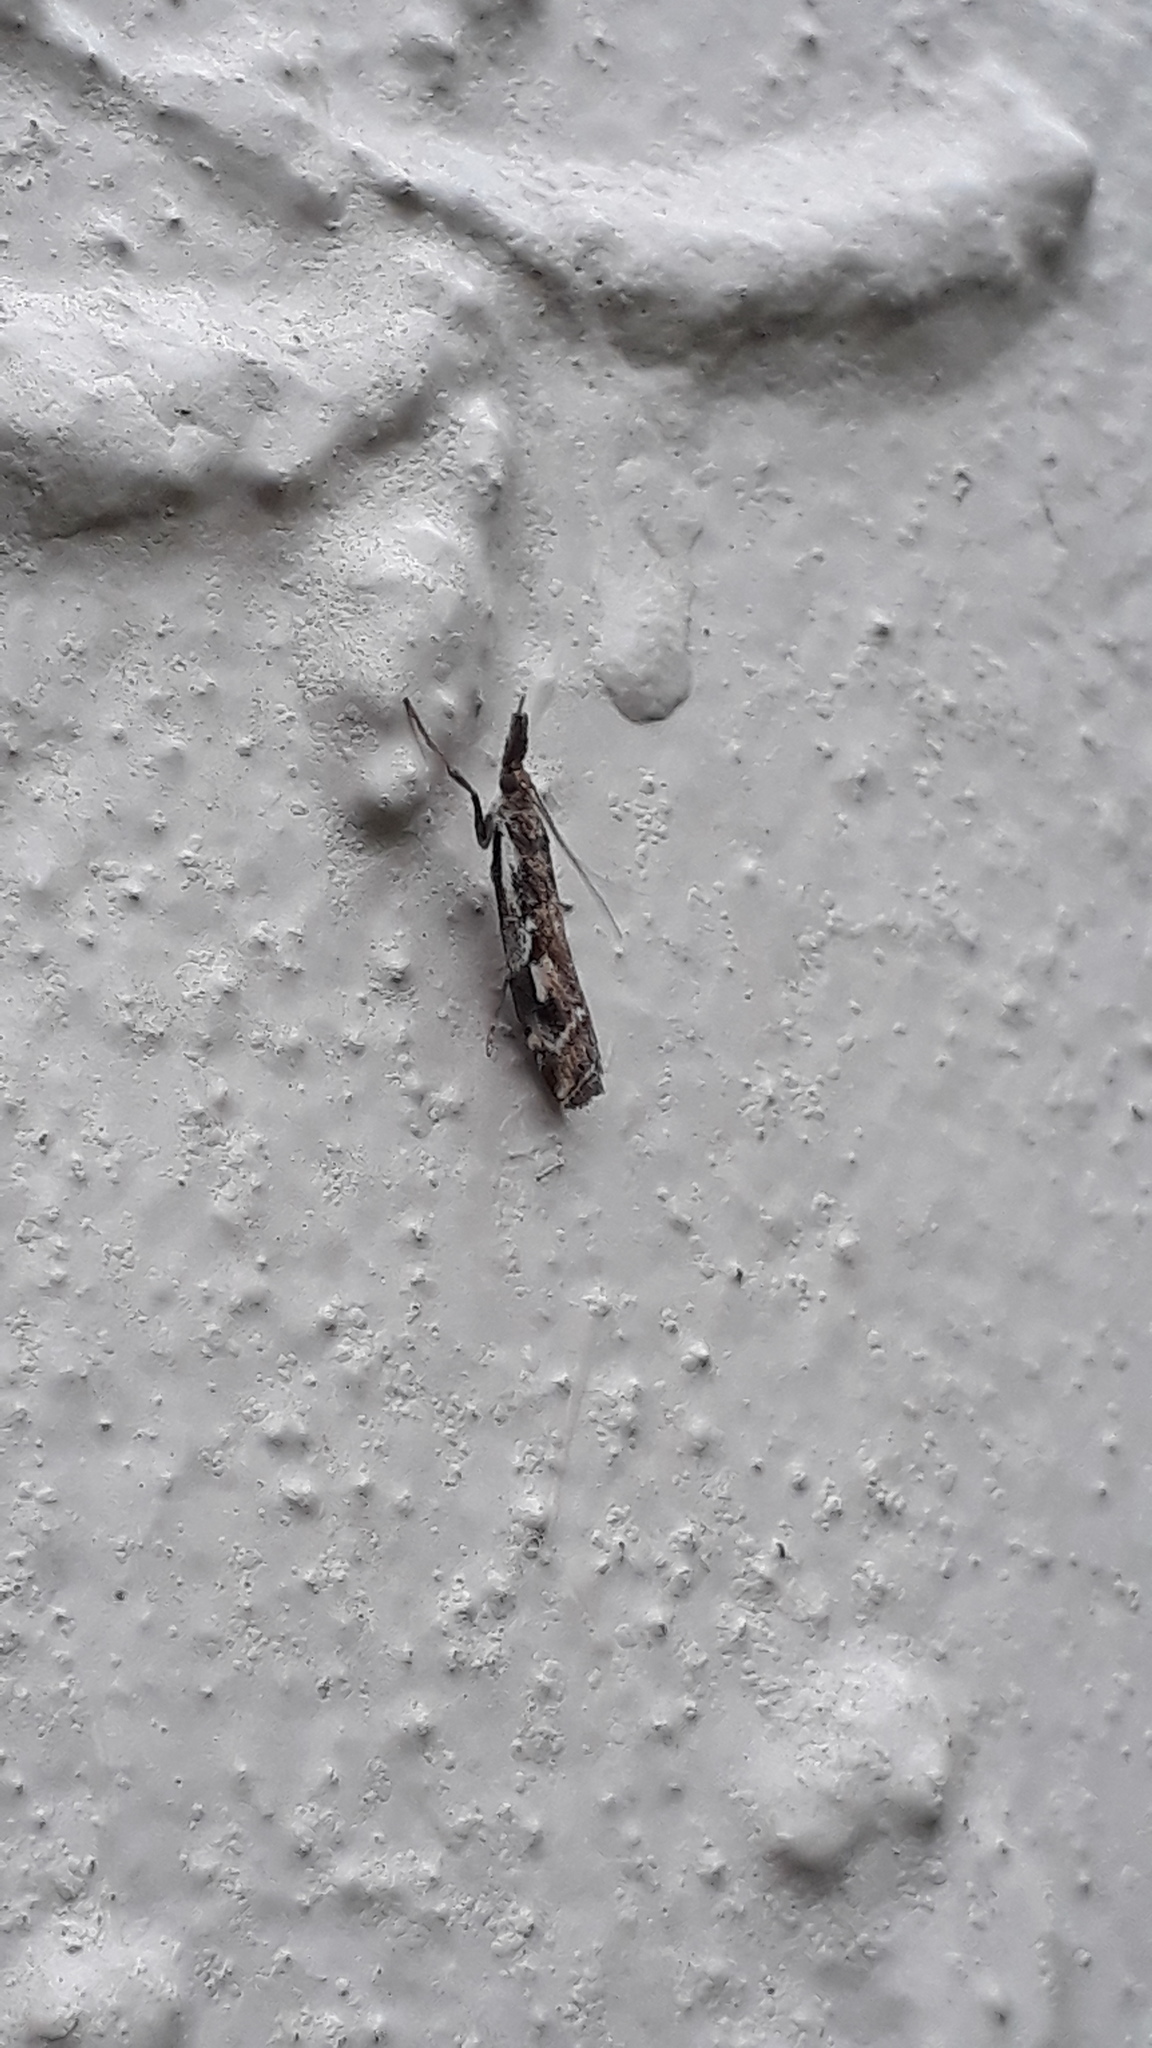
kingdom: Animalia
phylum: Arthropoda
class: Insecta
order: Lepidoptera
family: Crambidae
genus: Orocrambus
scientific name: Orocrambus vulgaris
